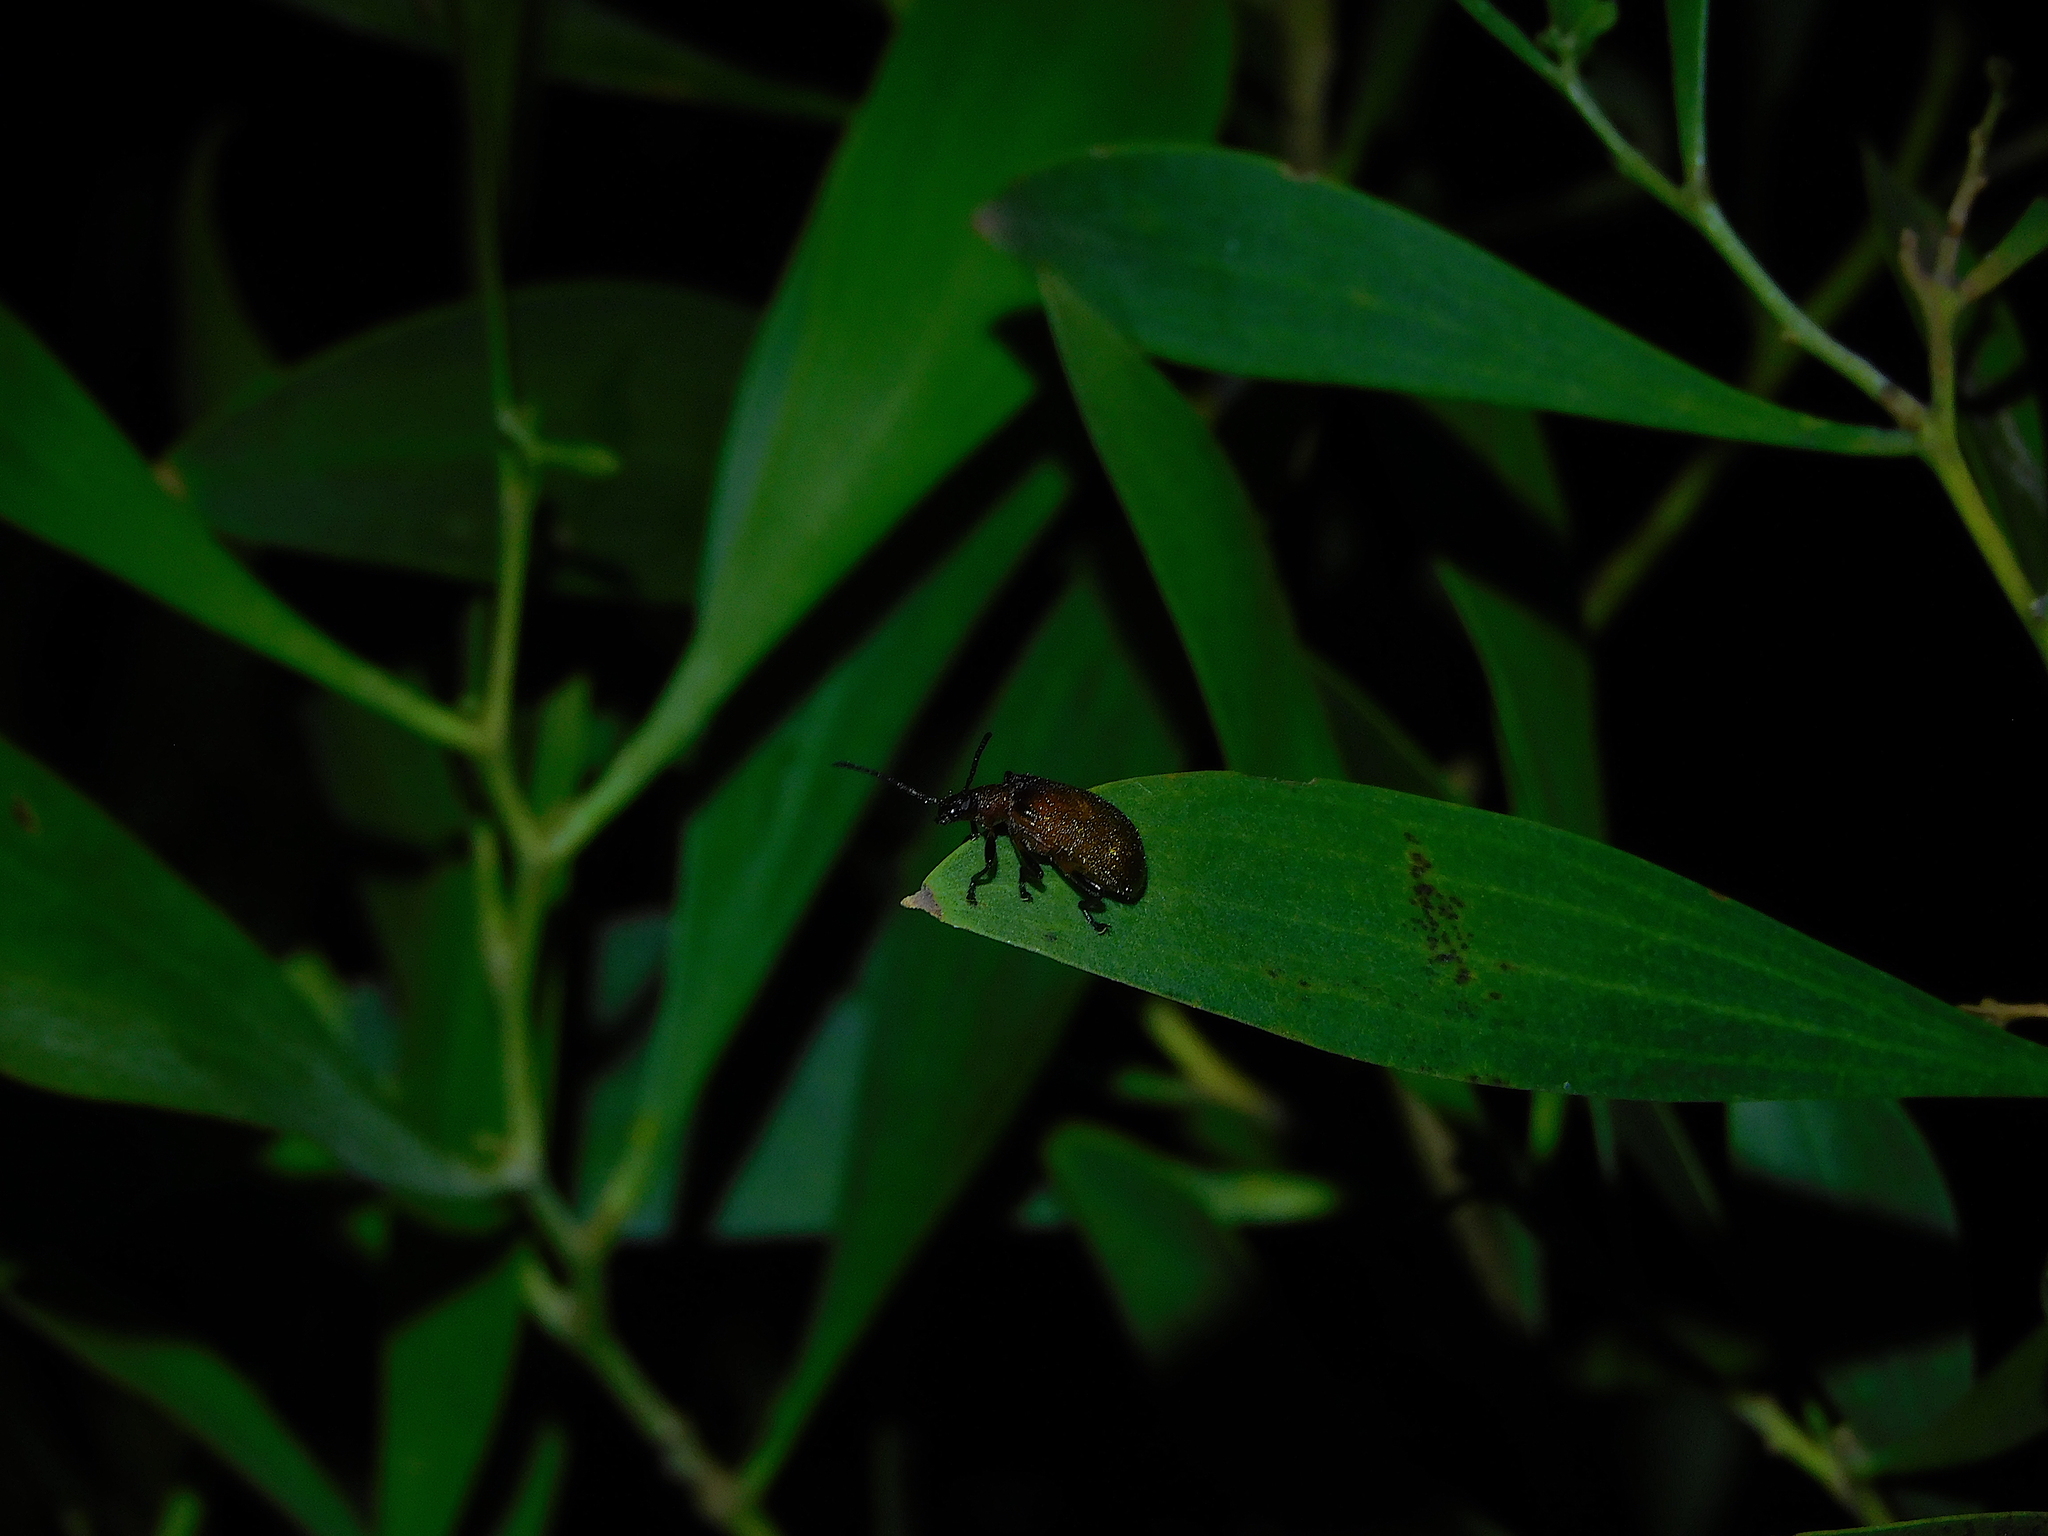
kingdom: Animalia
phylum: Arthropoda
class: Insecta
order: Coleoptera
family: Tenebrionidae
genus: Ecnolagria
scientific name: Ecnolagria
